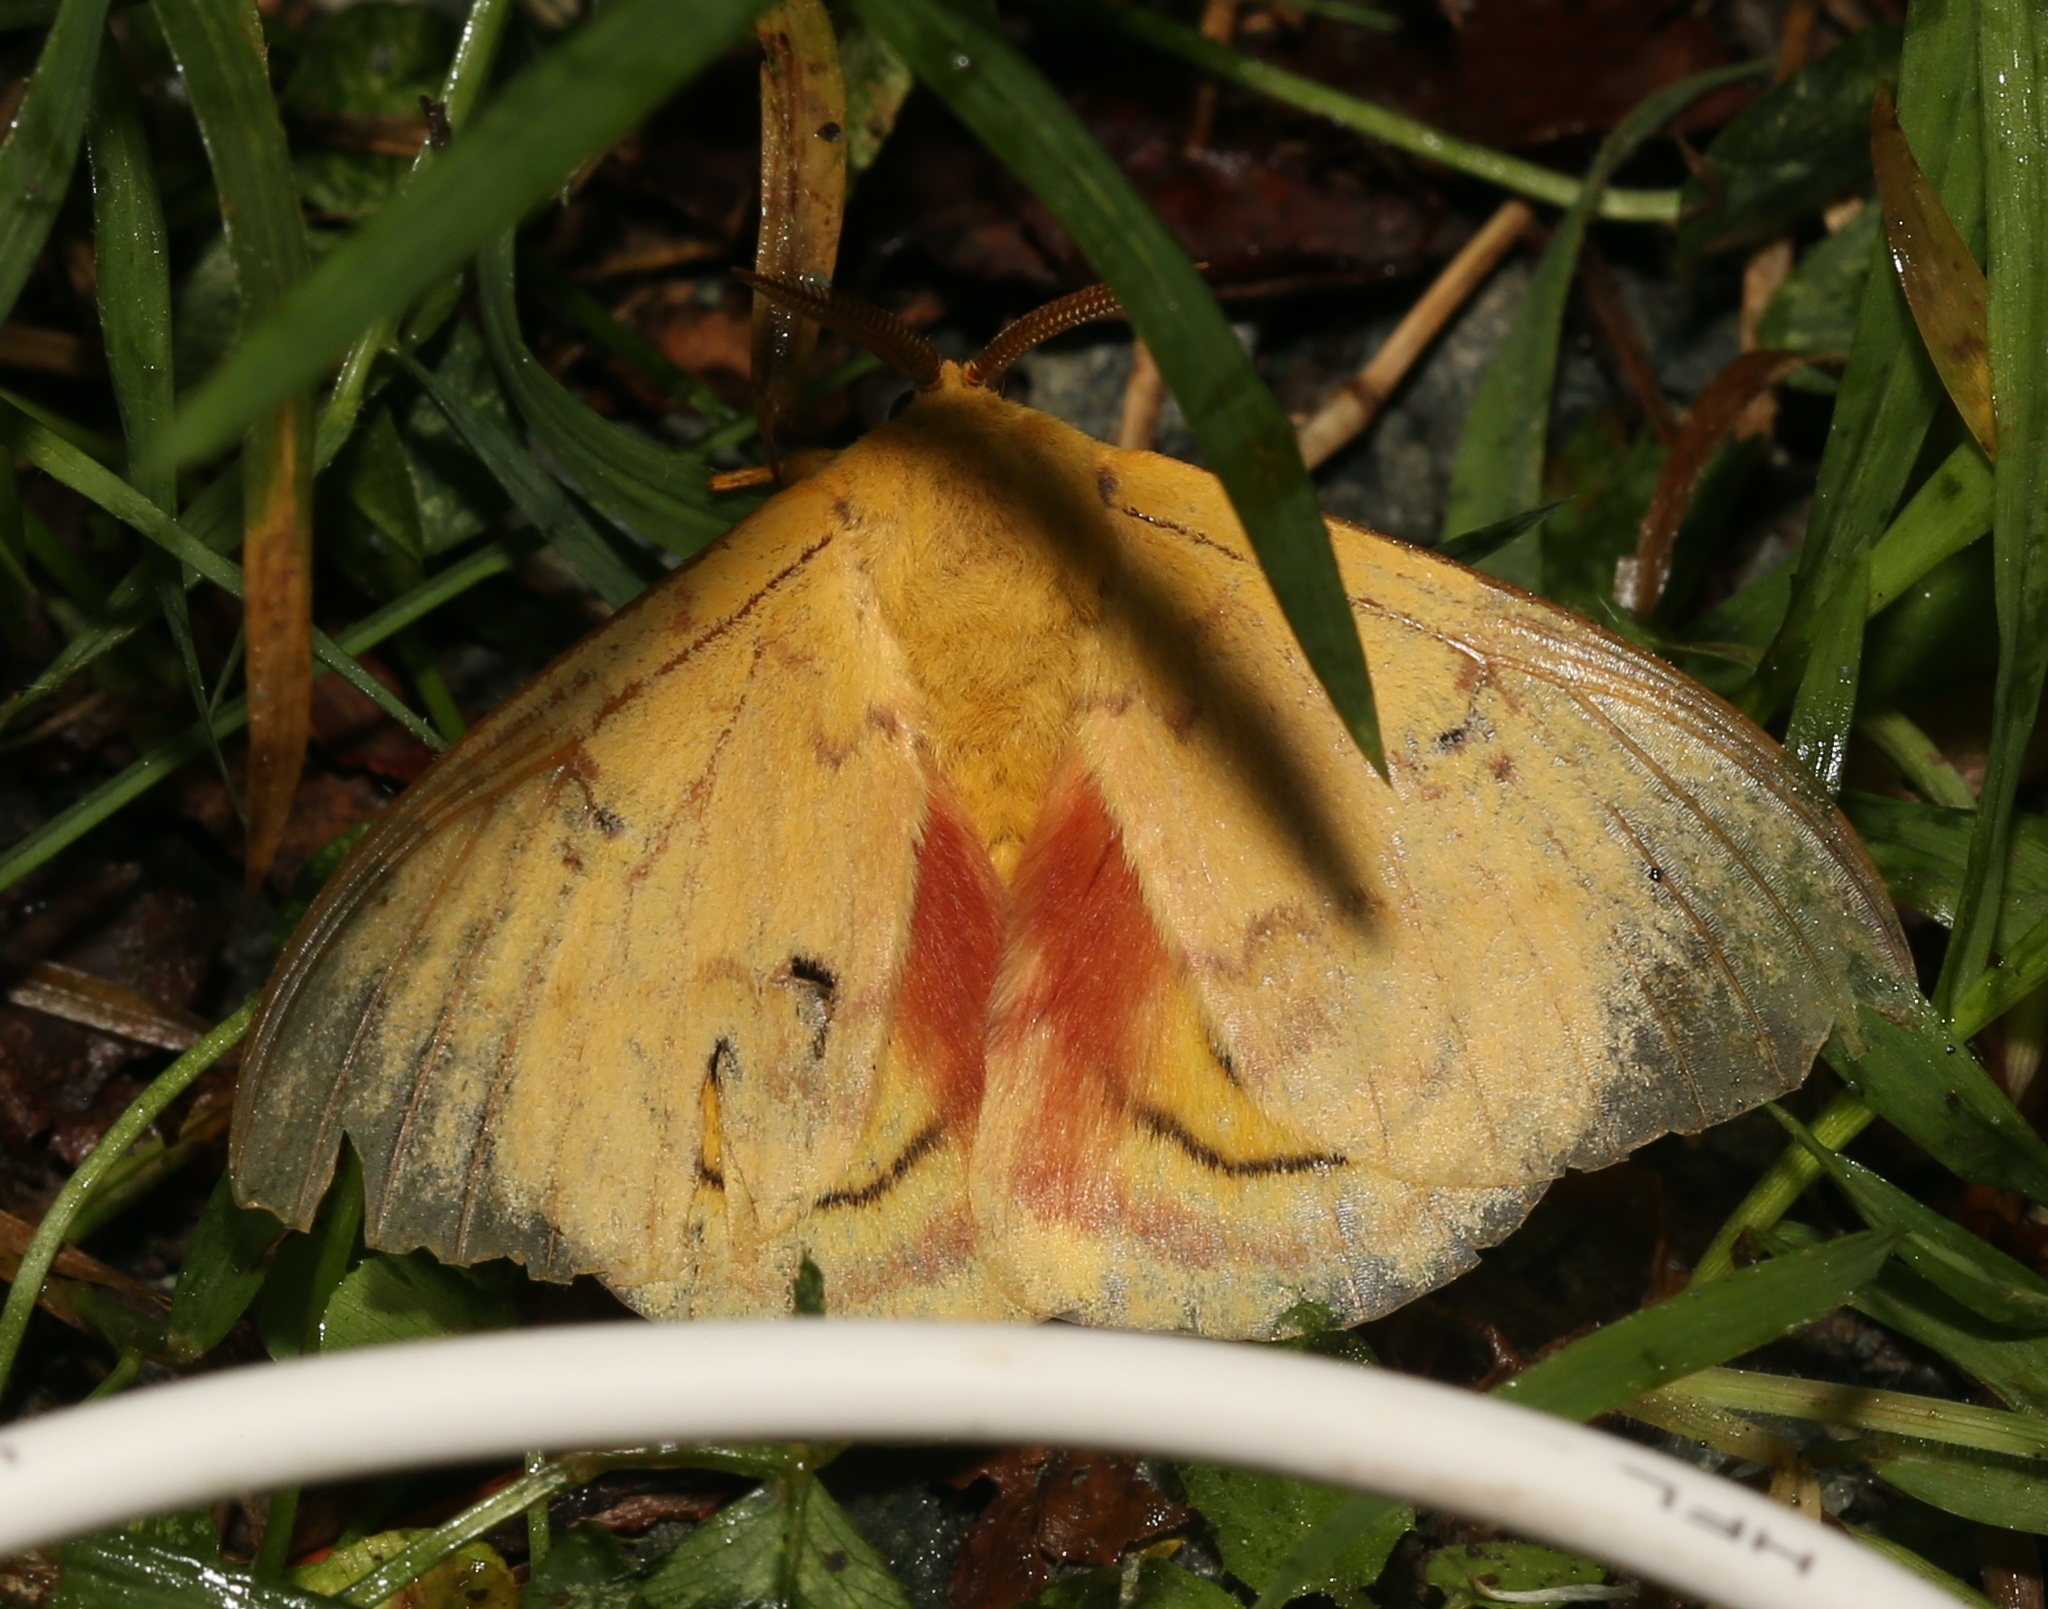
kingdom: Animalia
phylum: Arthropoda
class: Insecta
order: Lepidoptera
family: Saturniidae
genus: Automeris
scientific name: Automeris io
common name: Io moth
